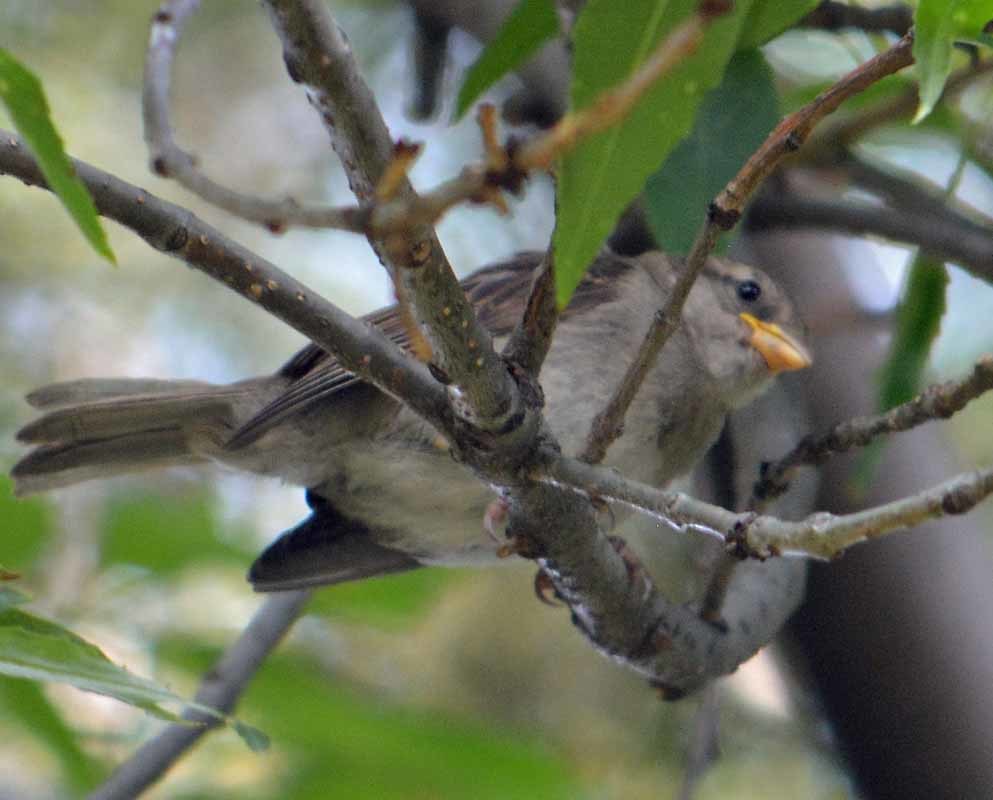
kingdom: Animalia
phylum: Chordata
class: Aves
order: Passeriformes
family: Passeridae
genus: Passer
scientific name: Passer domesticus
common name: House sparrow
